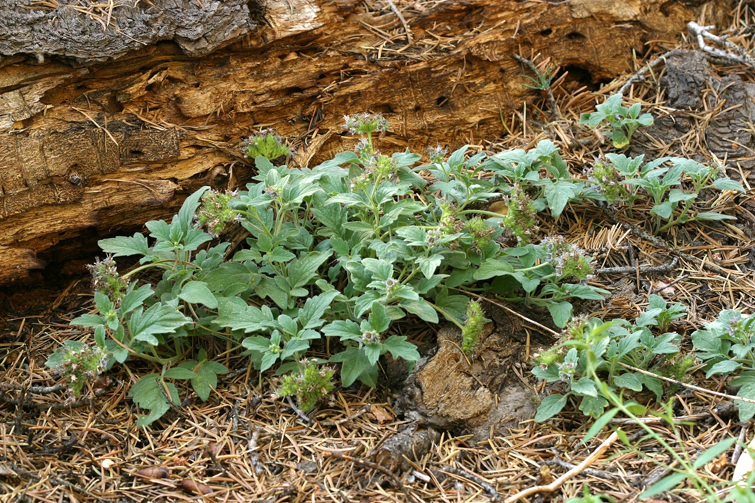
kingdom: Plantae
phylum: Tracheophyta
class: Magnoliopsida
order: Boraginales
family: Hydrophyllaceae
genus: Phacelia
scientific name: Phacelia hydrophylloides
